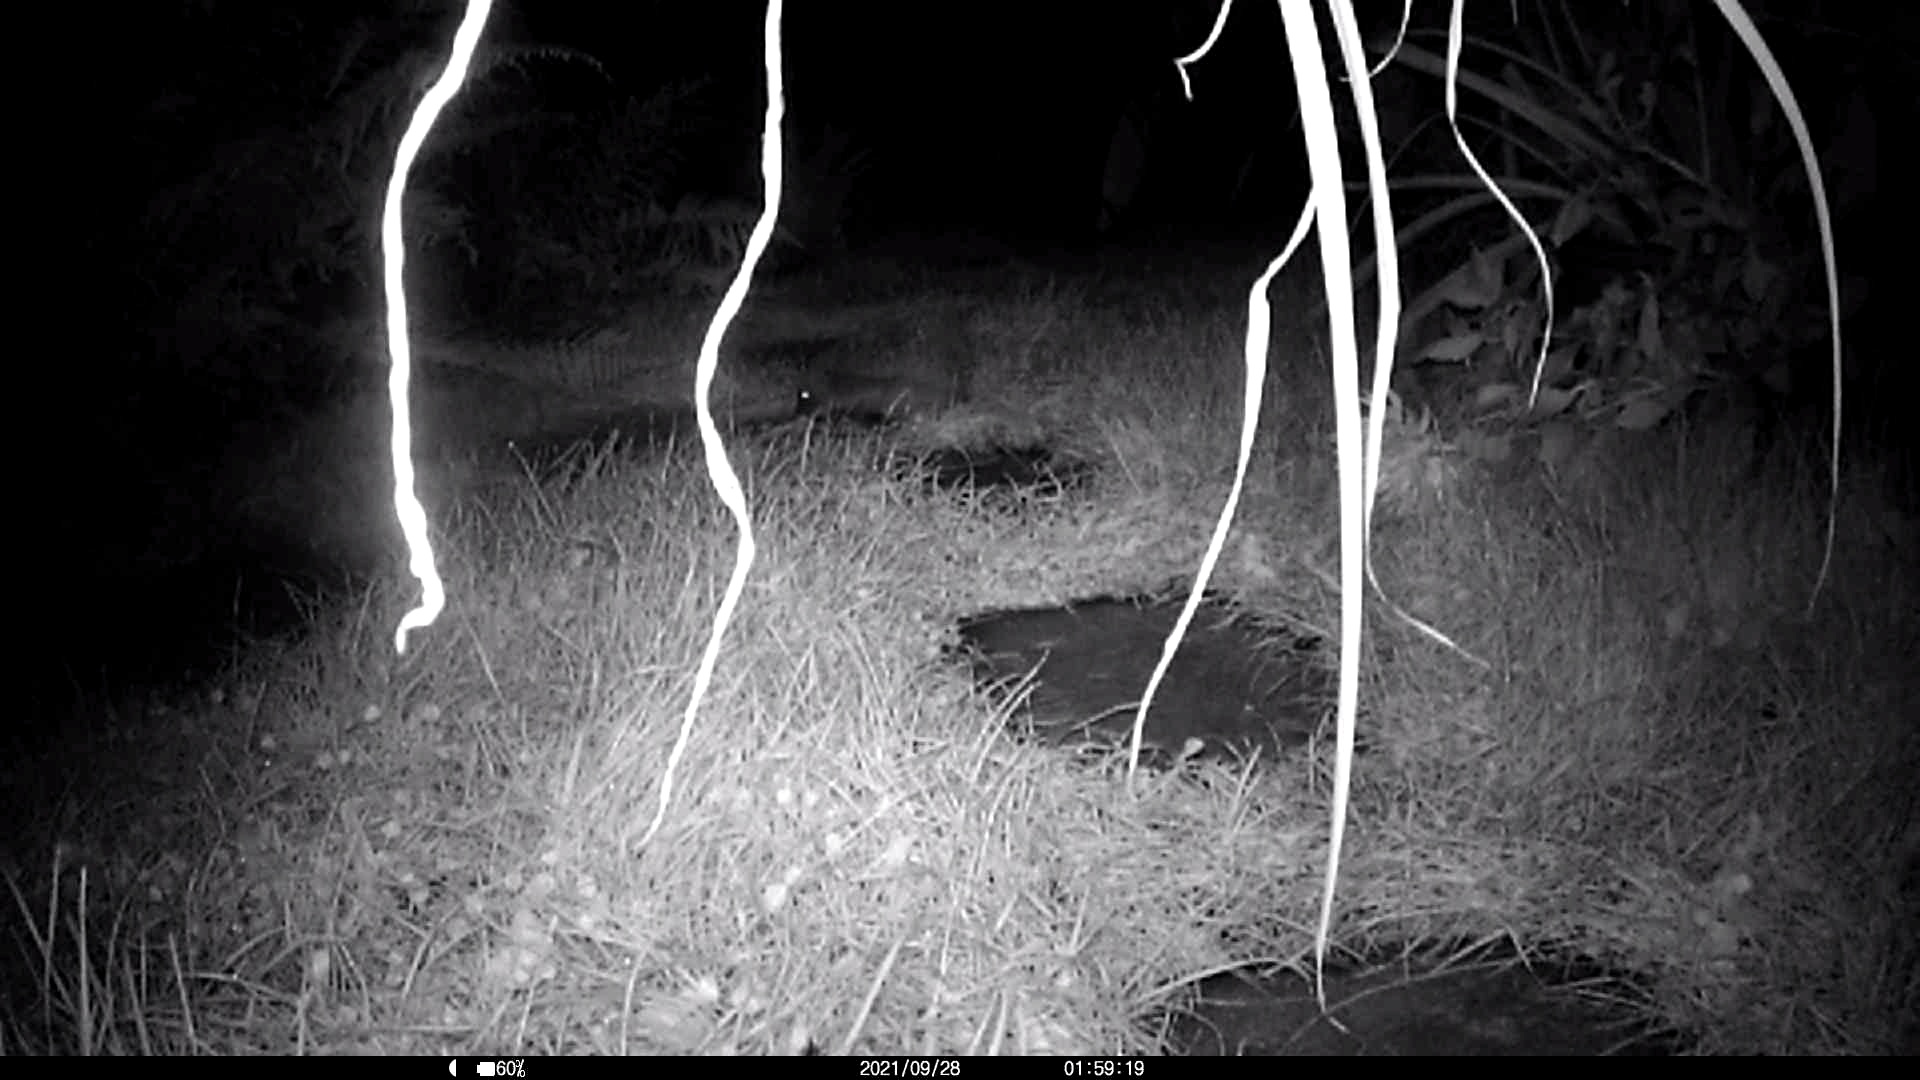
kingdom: Animalia
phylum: Chordata
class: Mammalia
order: Erinaceomorpha
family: Erinaceidae
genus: Erinaceus
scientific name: Erinaceus europaeus
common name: West european hedgehog
